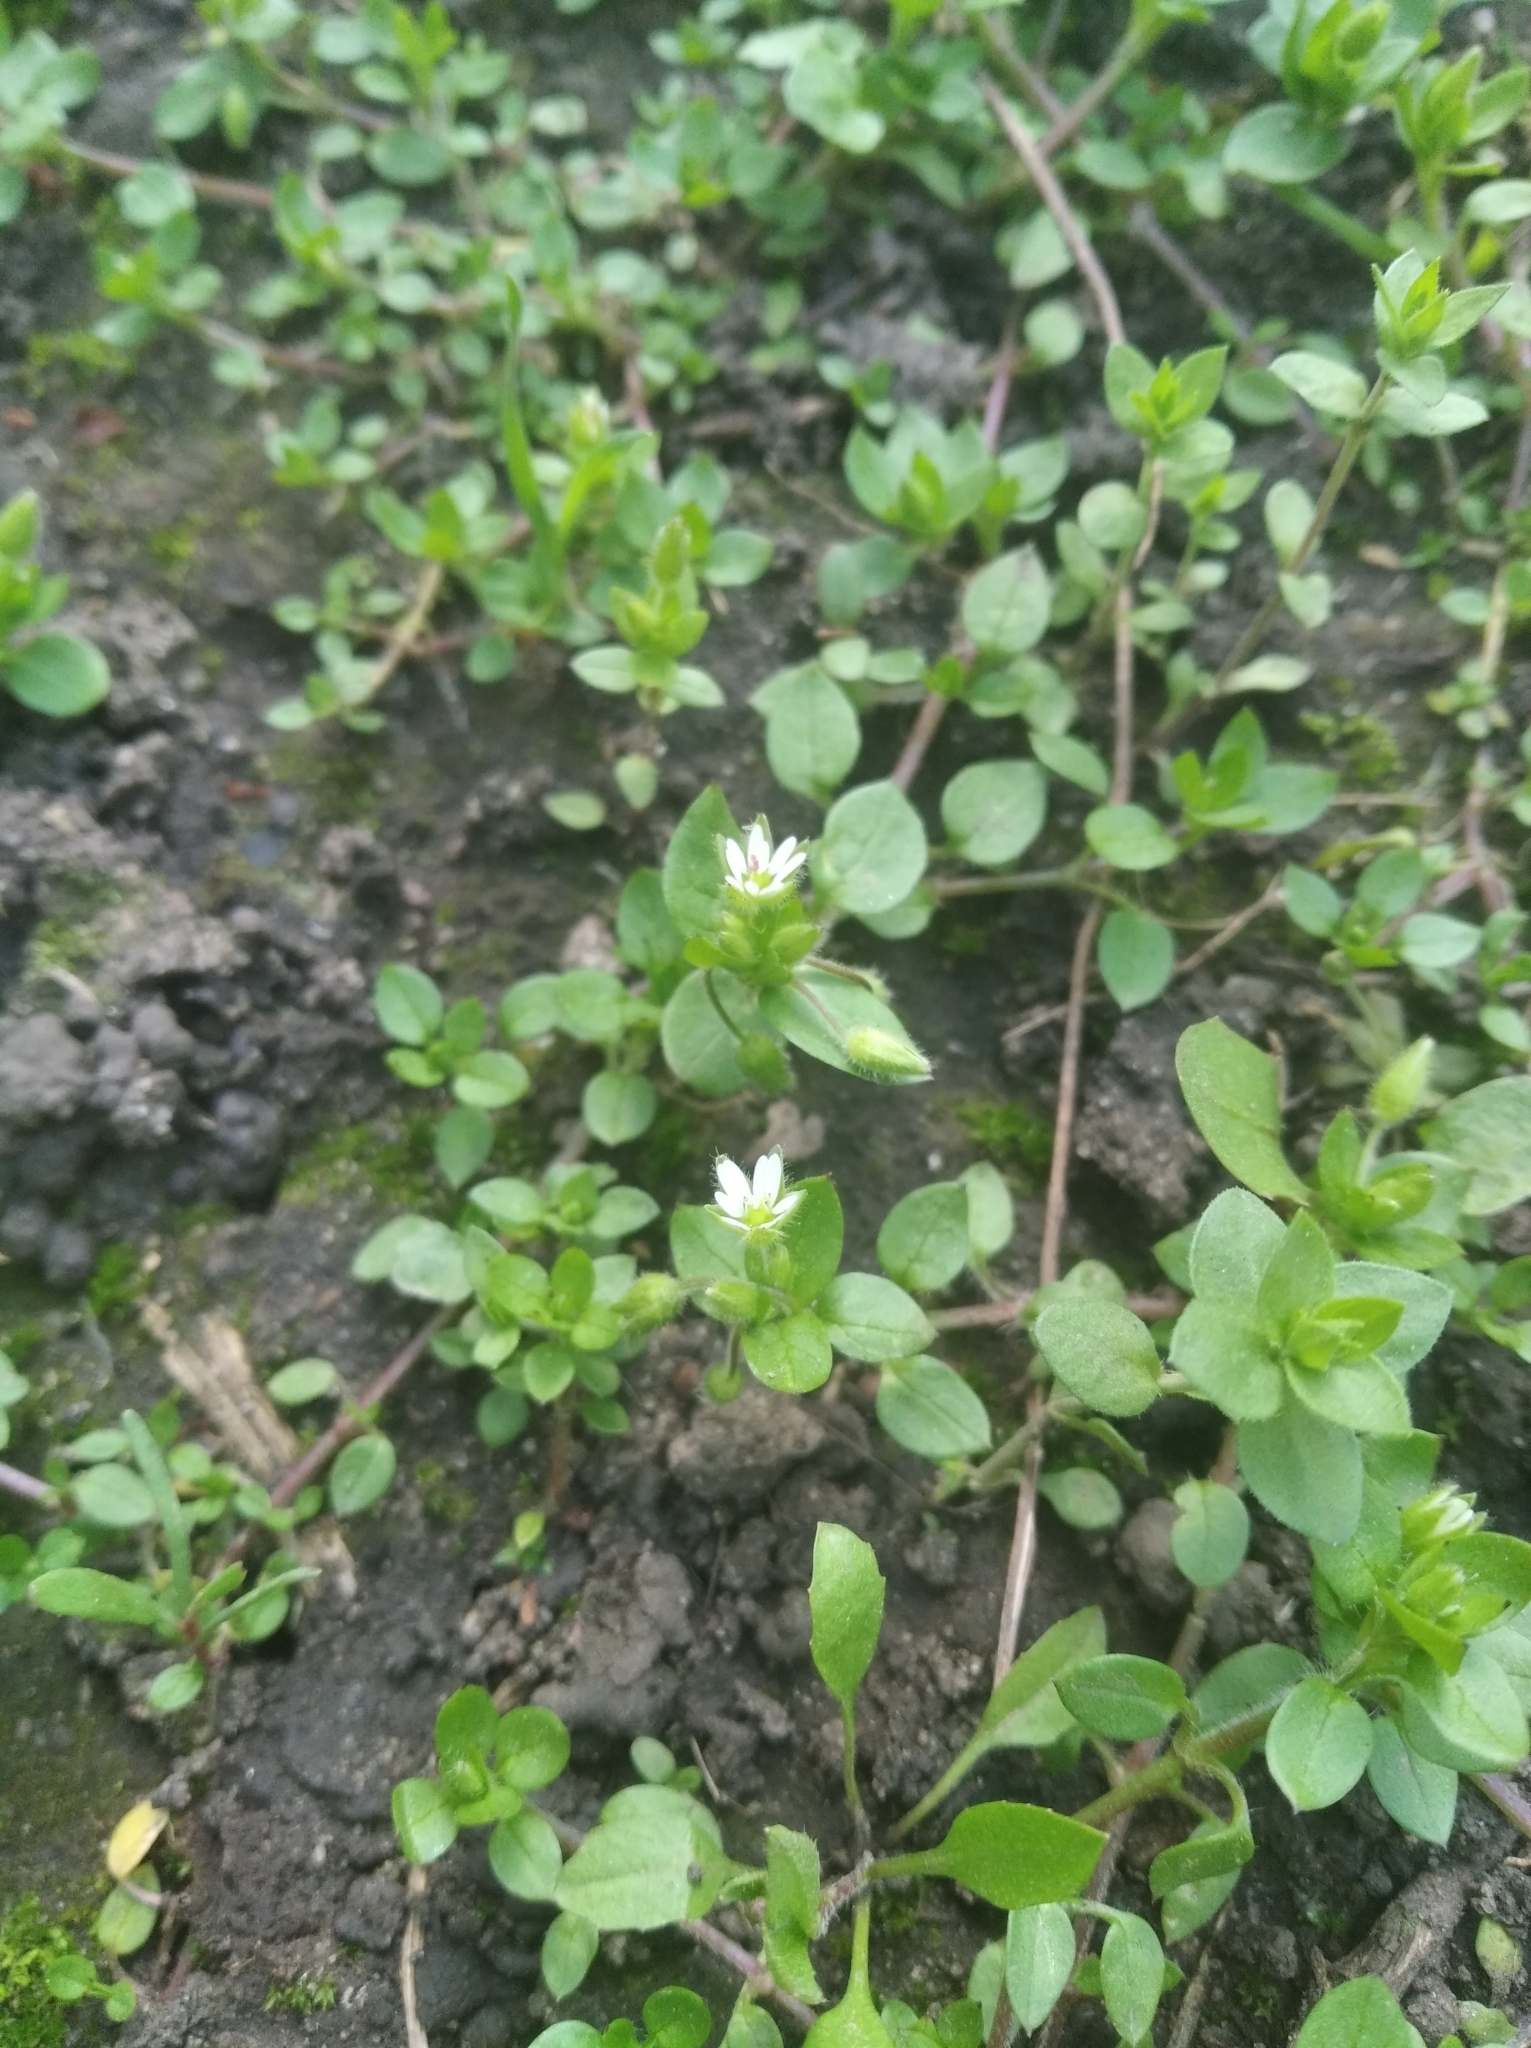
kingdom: Plantae
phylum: Tracheophyta
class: Magnoliopsida
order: Caryophyllales
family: Caryophyllaceae
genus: Stellaria
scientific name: Stellaria media
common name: Common chickweed
